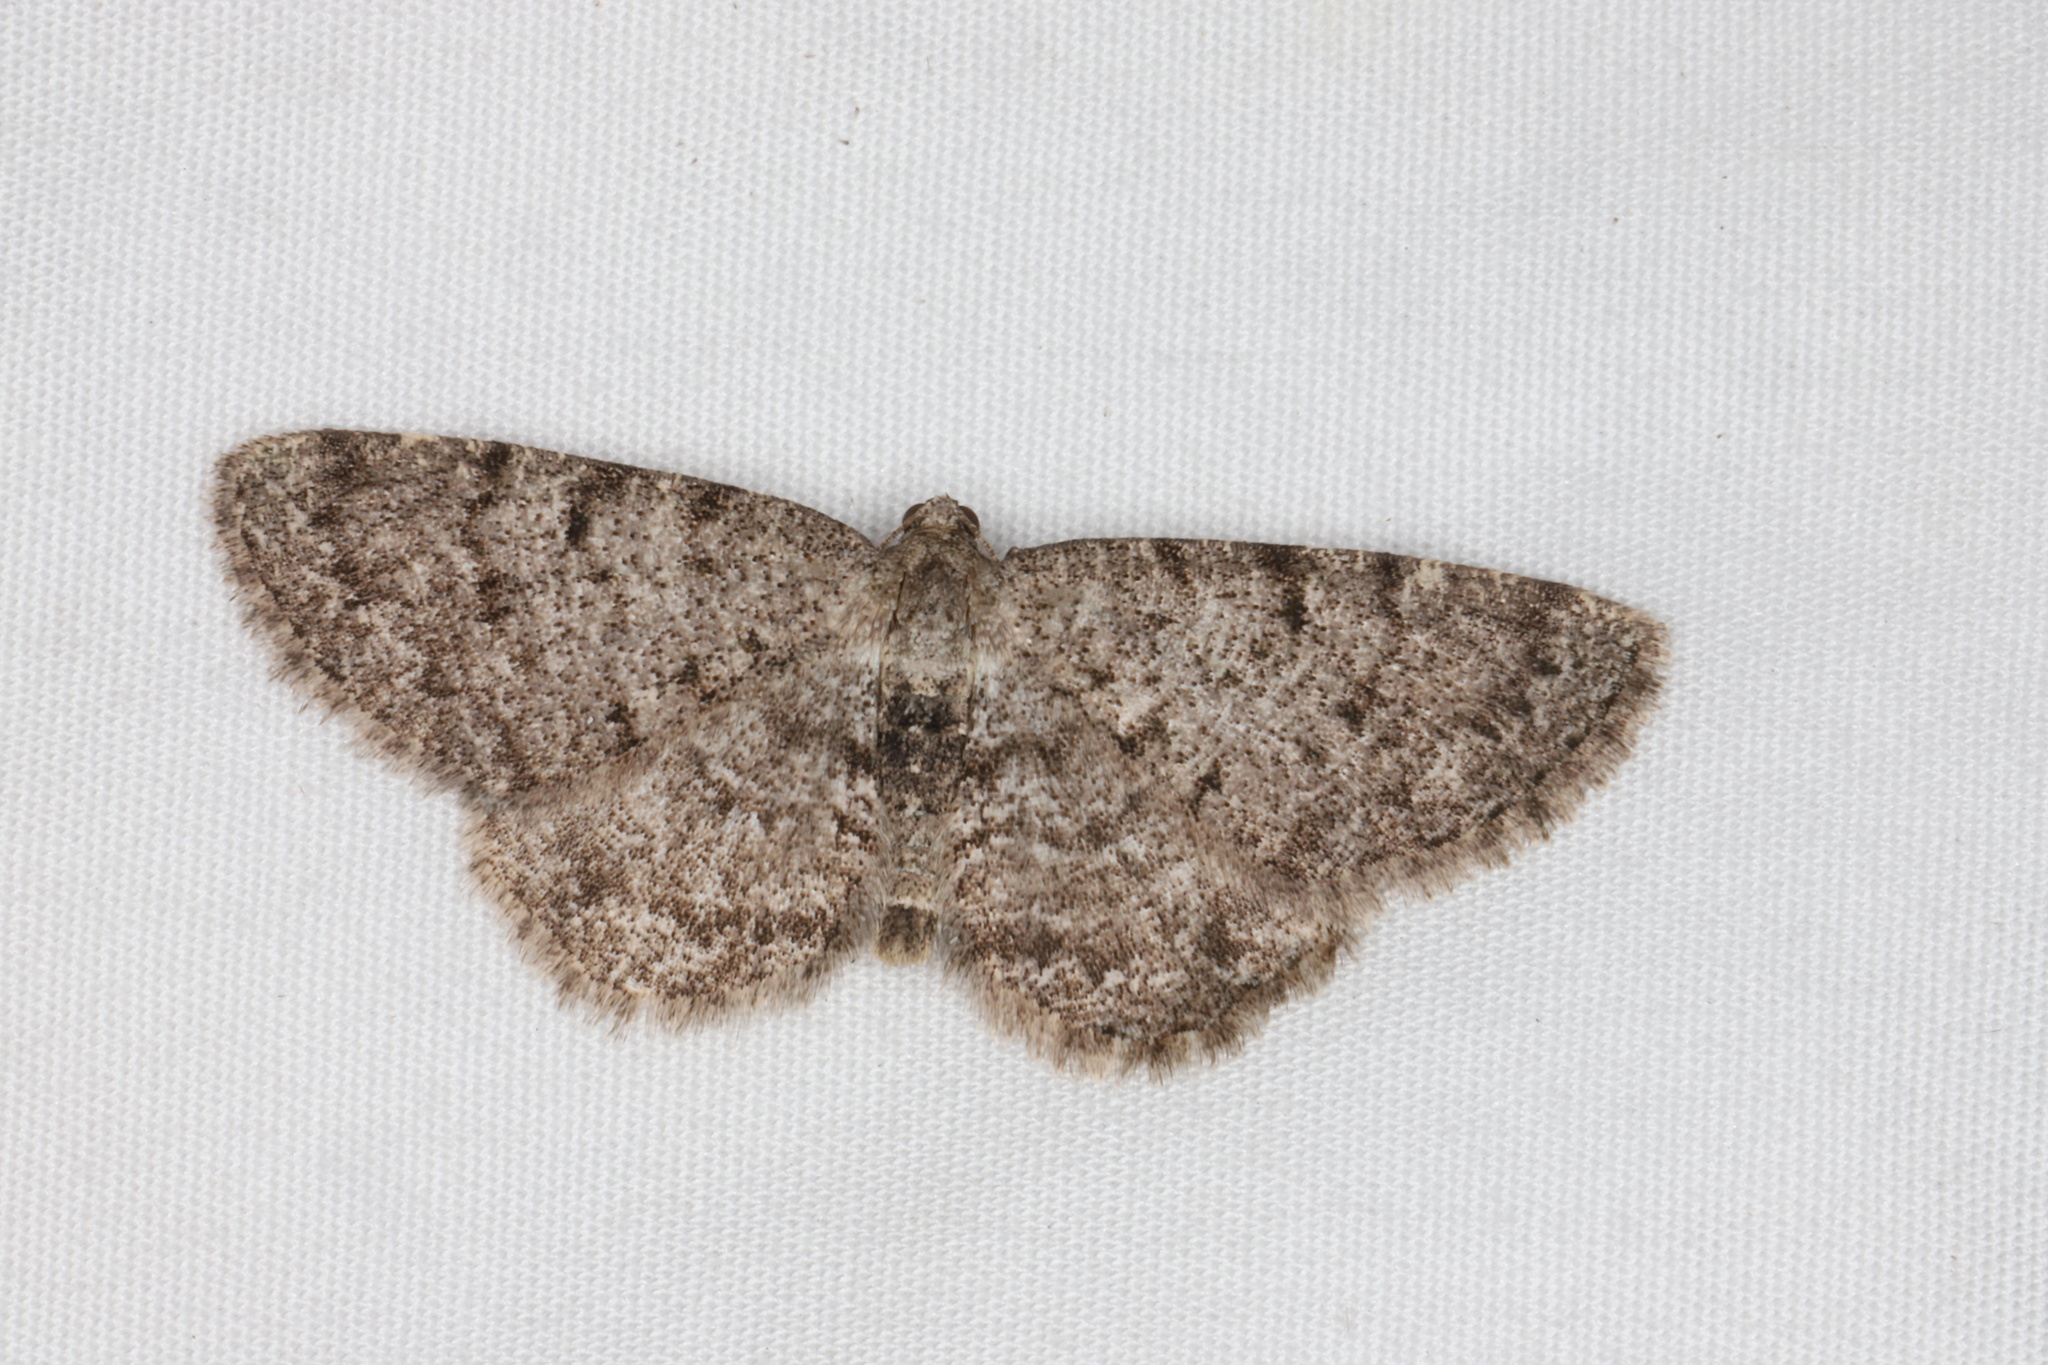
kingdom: Animalia
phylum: Arthropoda
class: Insecta
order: Lepidoptera
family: Geometridae
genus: Aethalura
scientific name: Aethalura intertexta
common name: Four-barred gray
